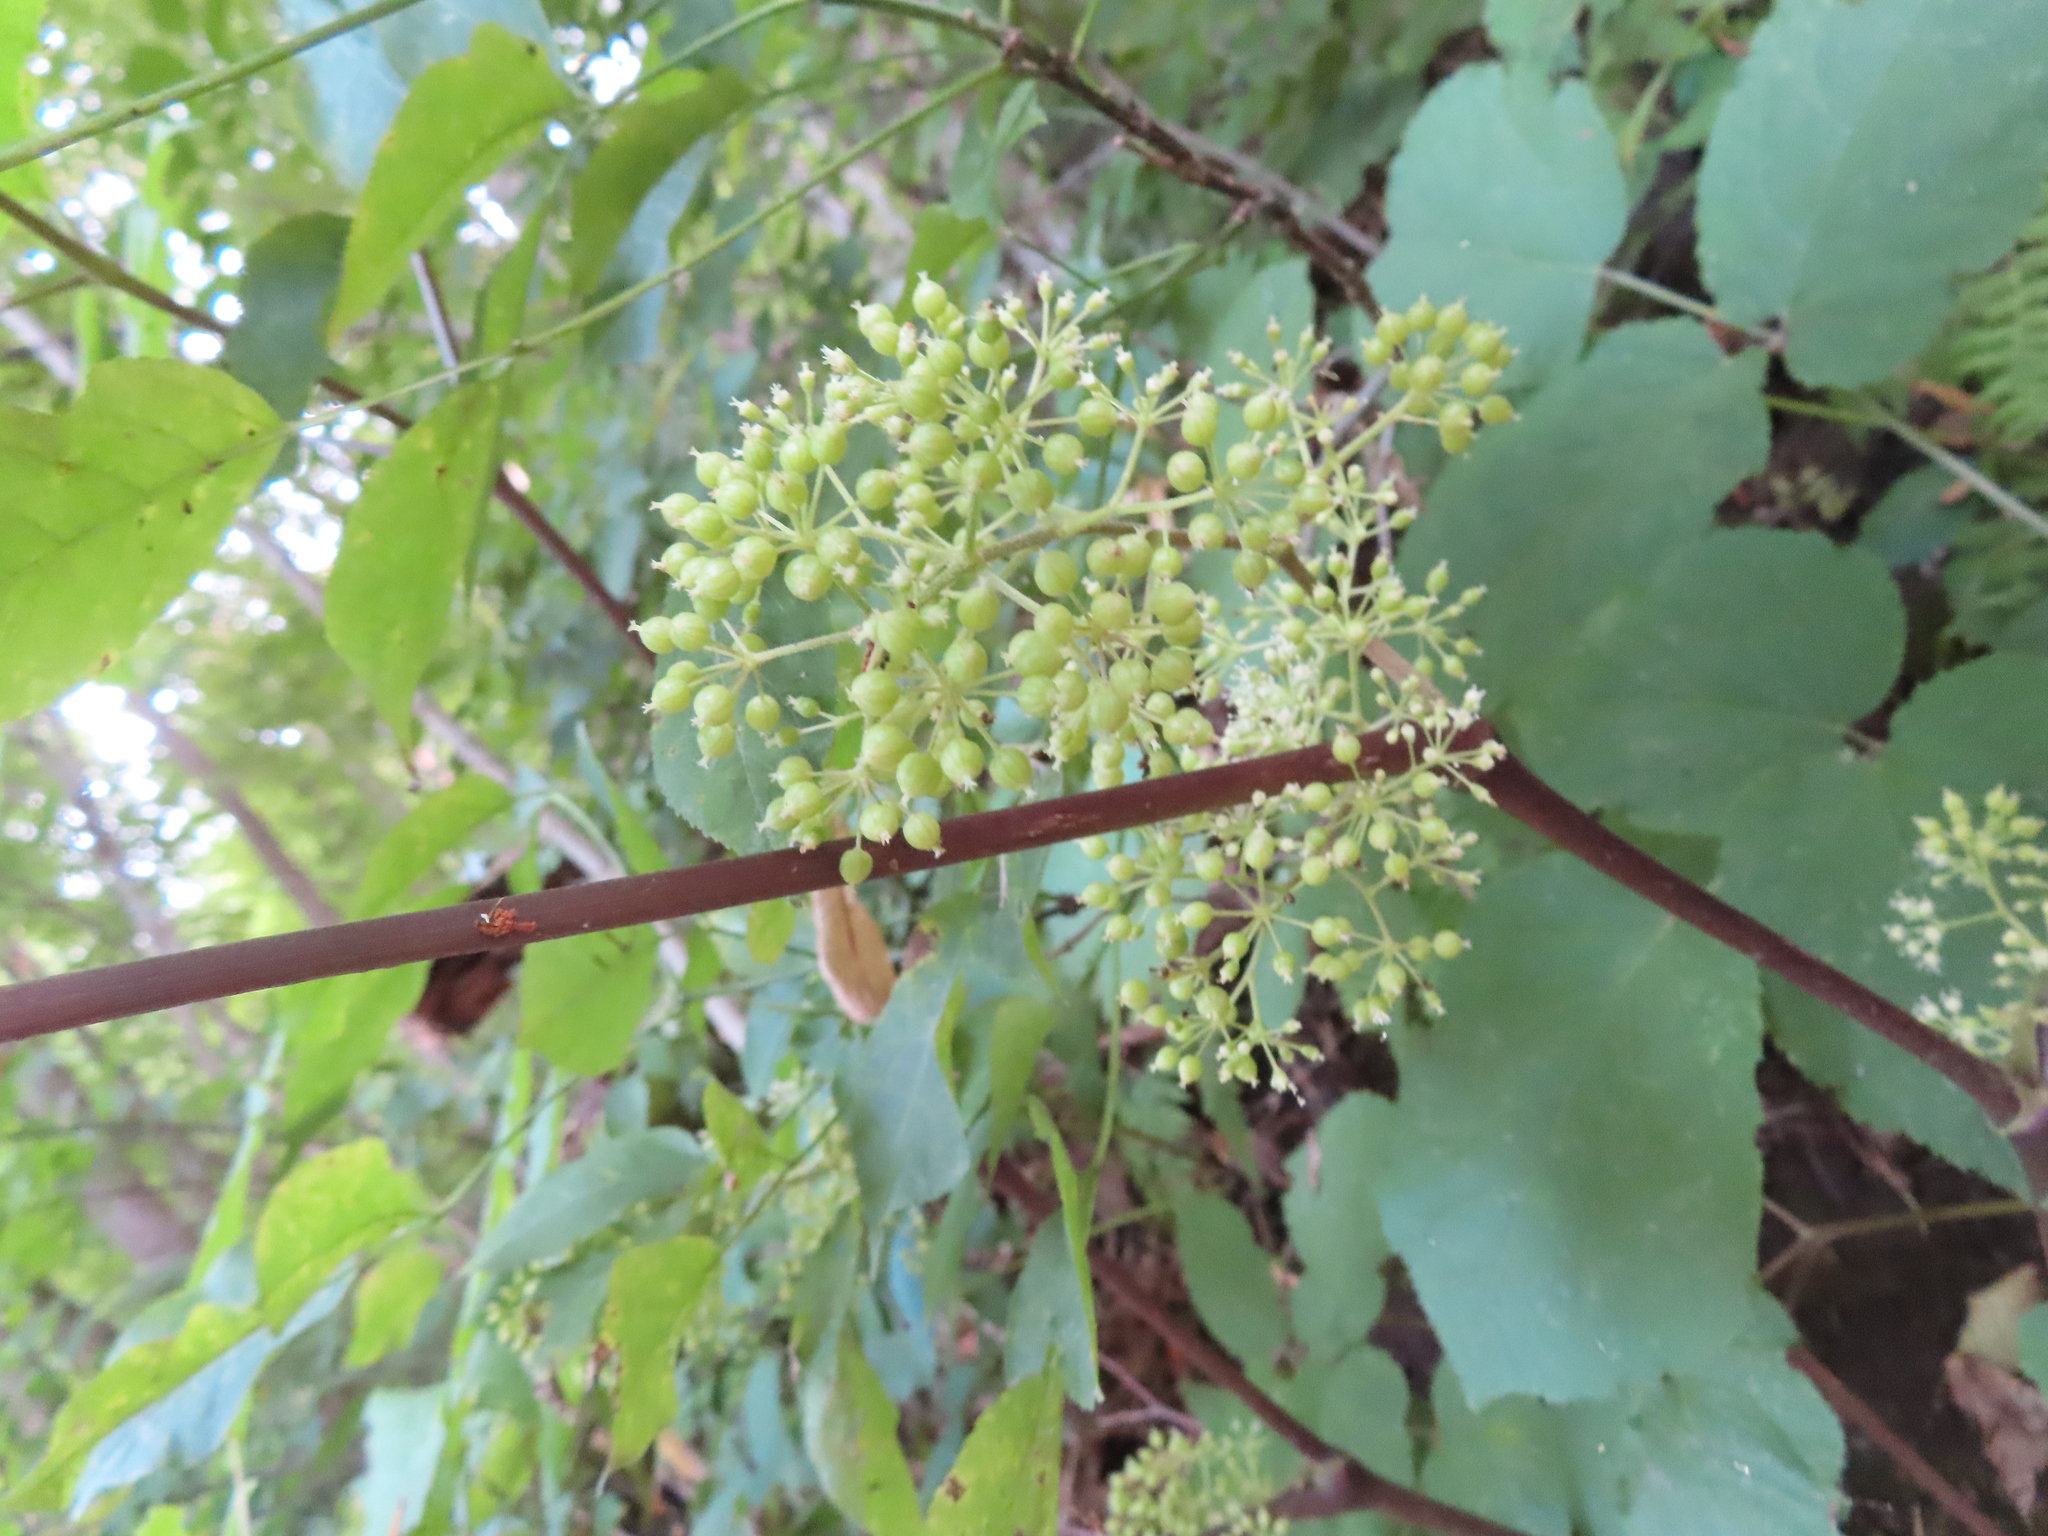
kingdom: Plantae
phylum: Tracheophyta
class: Magnoliopsida
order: Apiales
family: Araliaceae
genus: Aralia
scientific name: Aralia racemosa
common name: American-spikenard
